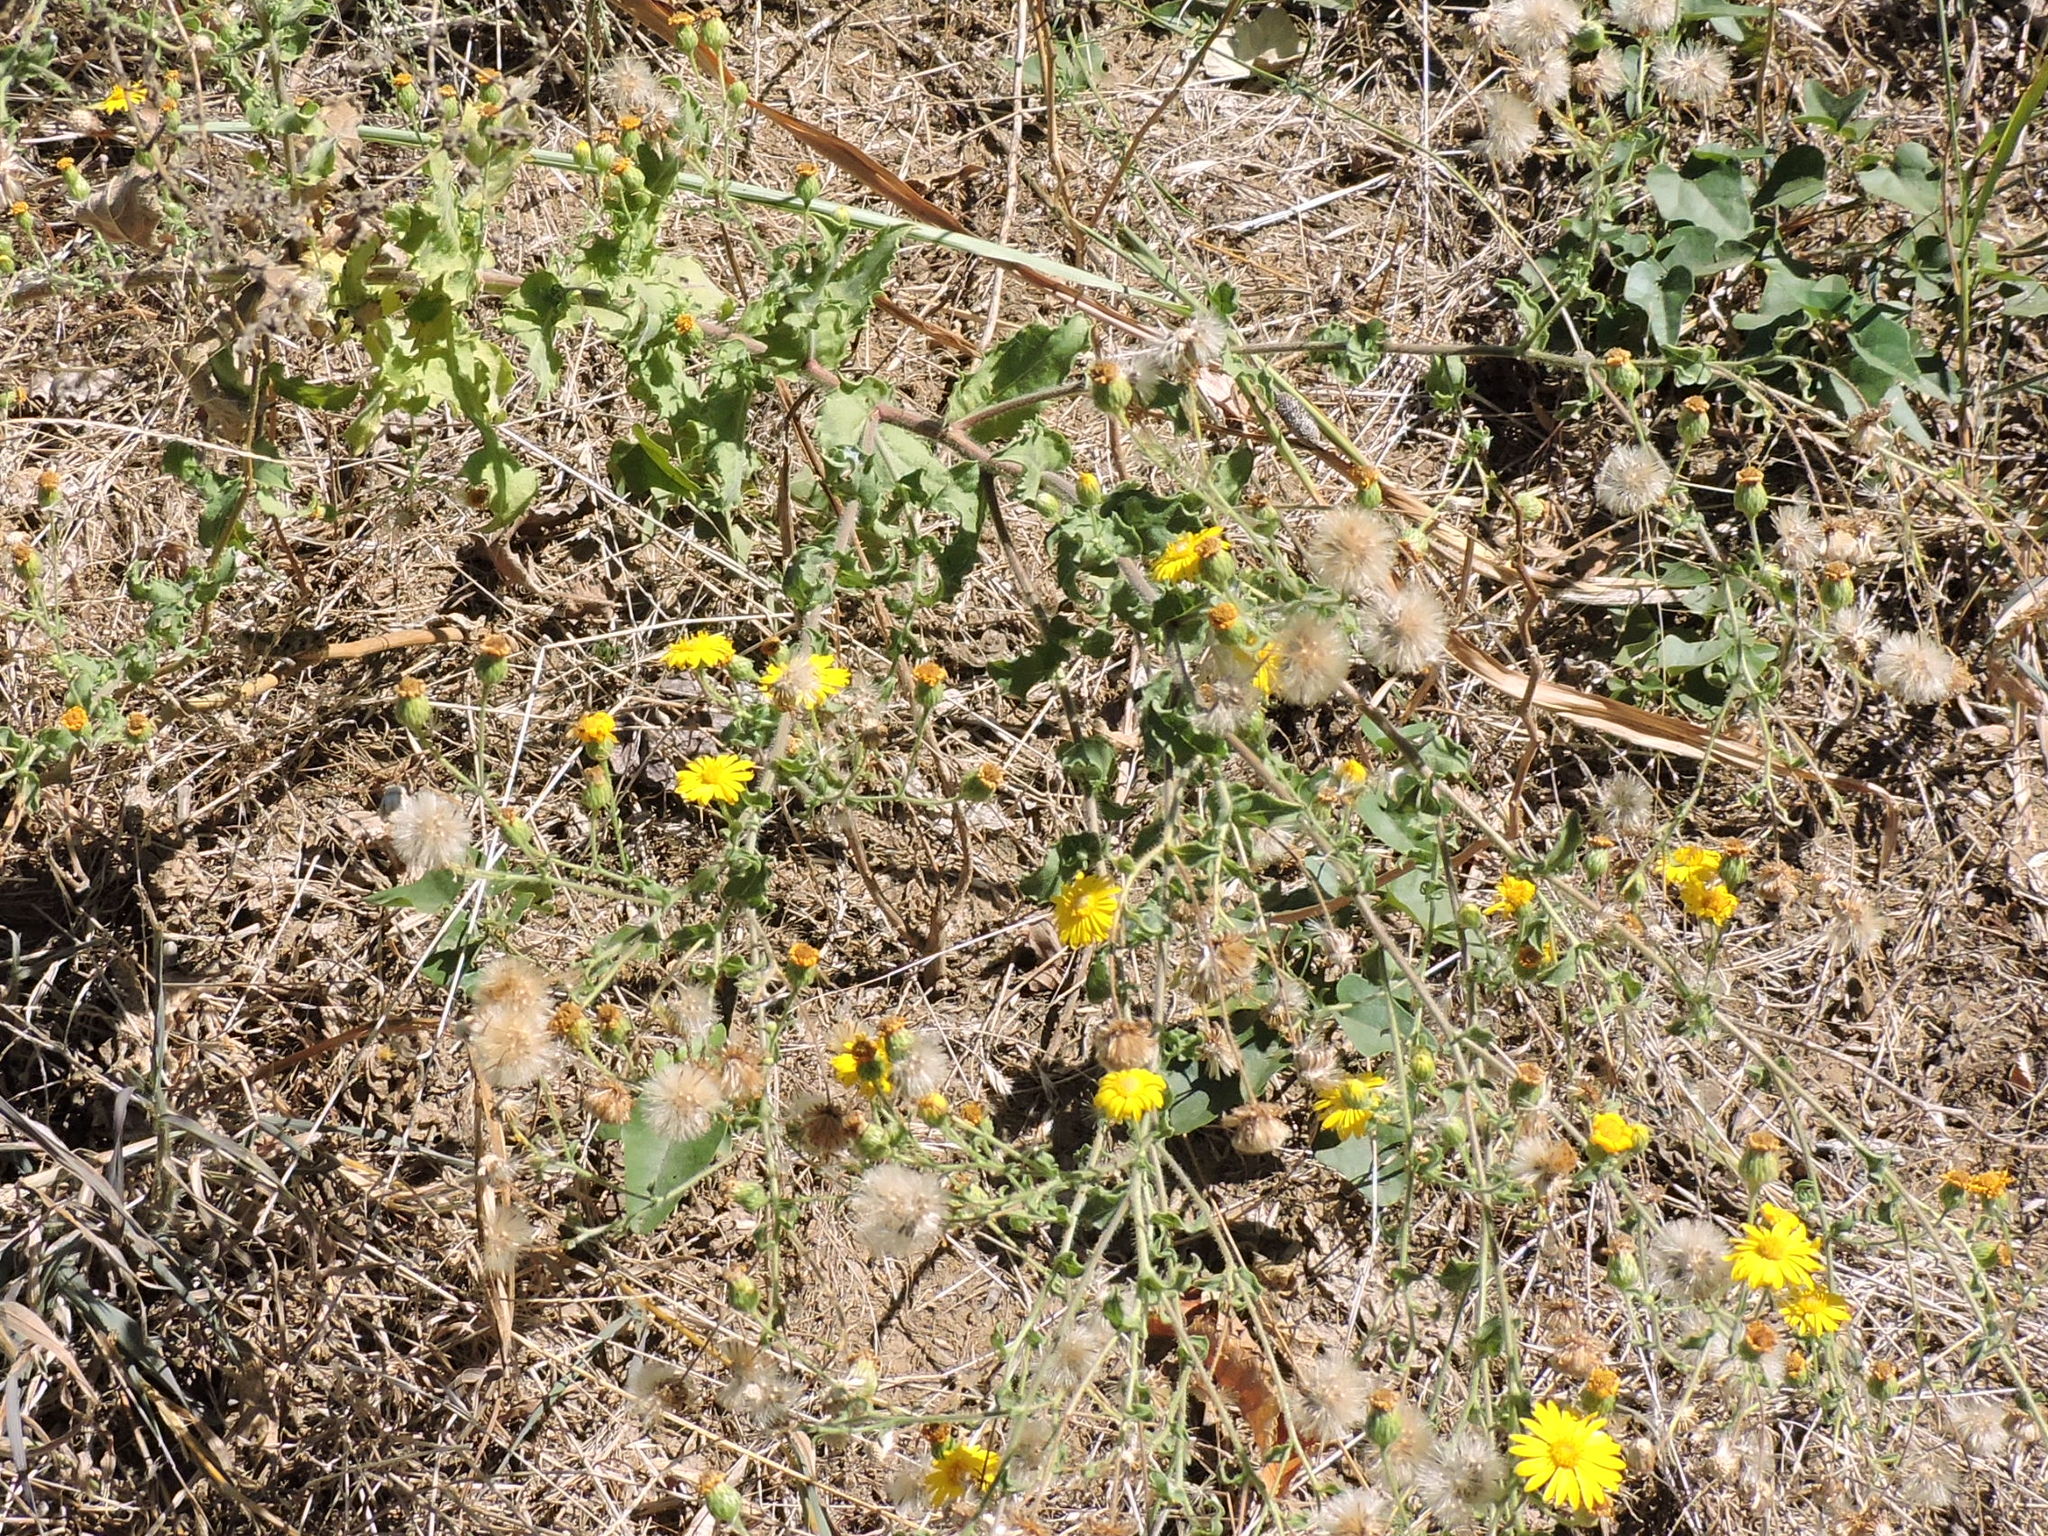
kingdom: Plantae
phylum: Tracheophyta
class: Magnoliopsida
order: Asterales
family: Asteraceae
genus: Heterotheca
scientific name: Heterotheca subaxillaris
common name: Camphorweed
